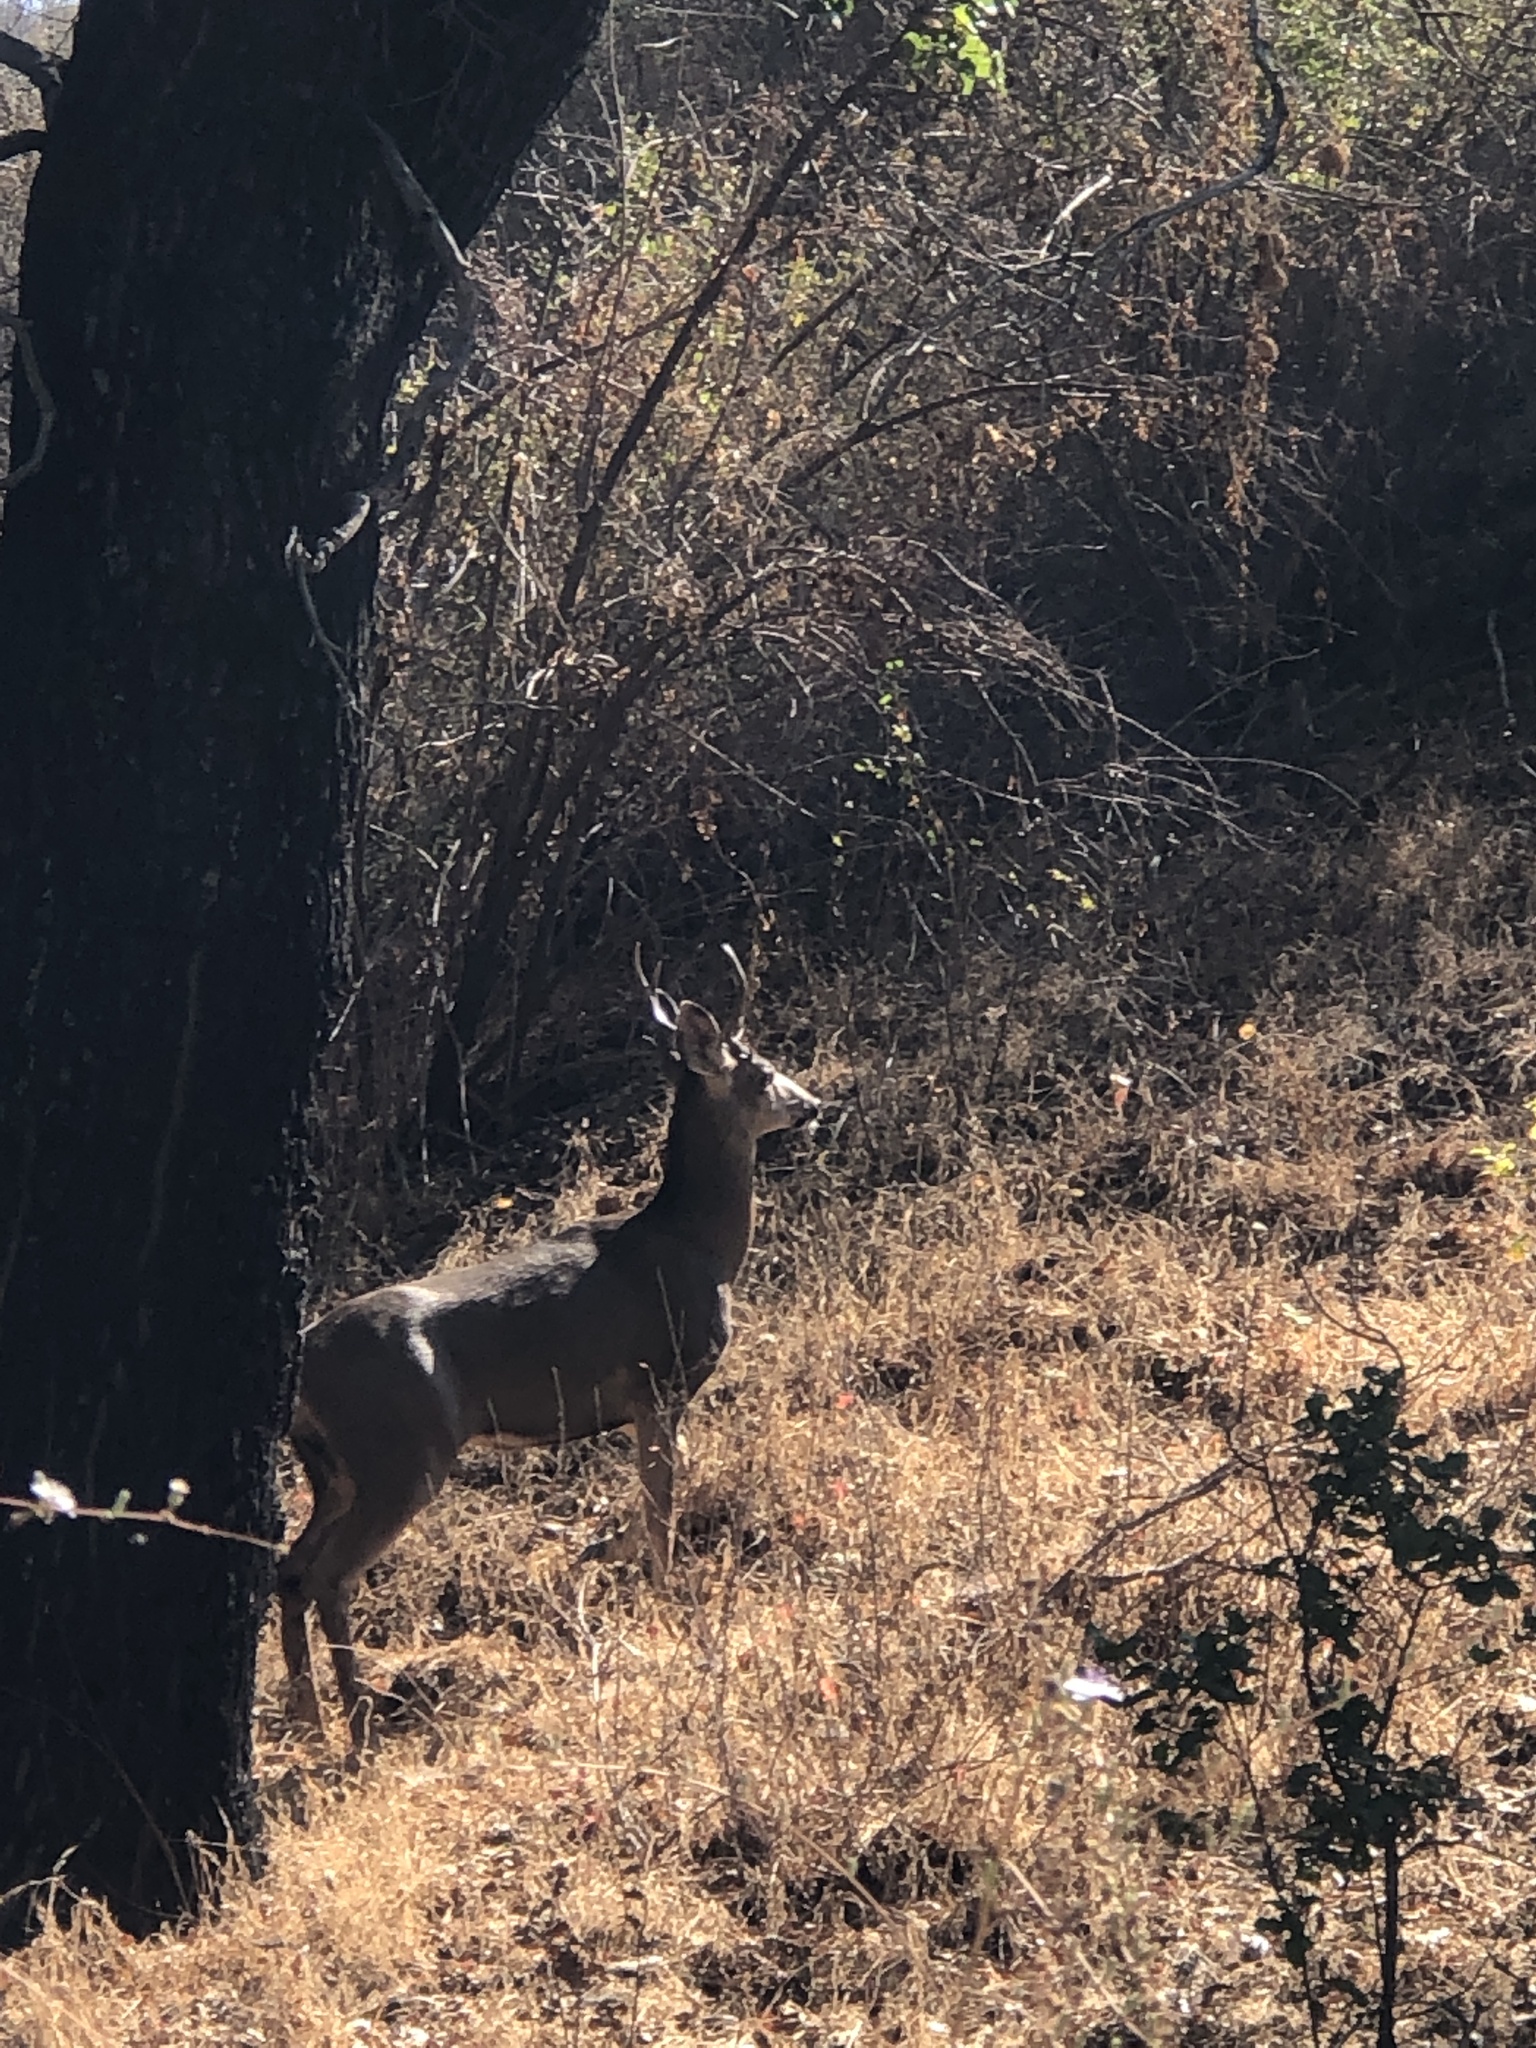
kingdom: Animalia
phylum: Chordata
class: Mammalia
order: Artiodactyla
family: Cervidae
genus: Odocoileus
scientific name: Odocoileus hemionus
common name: Mule deer
